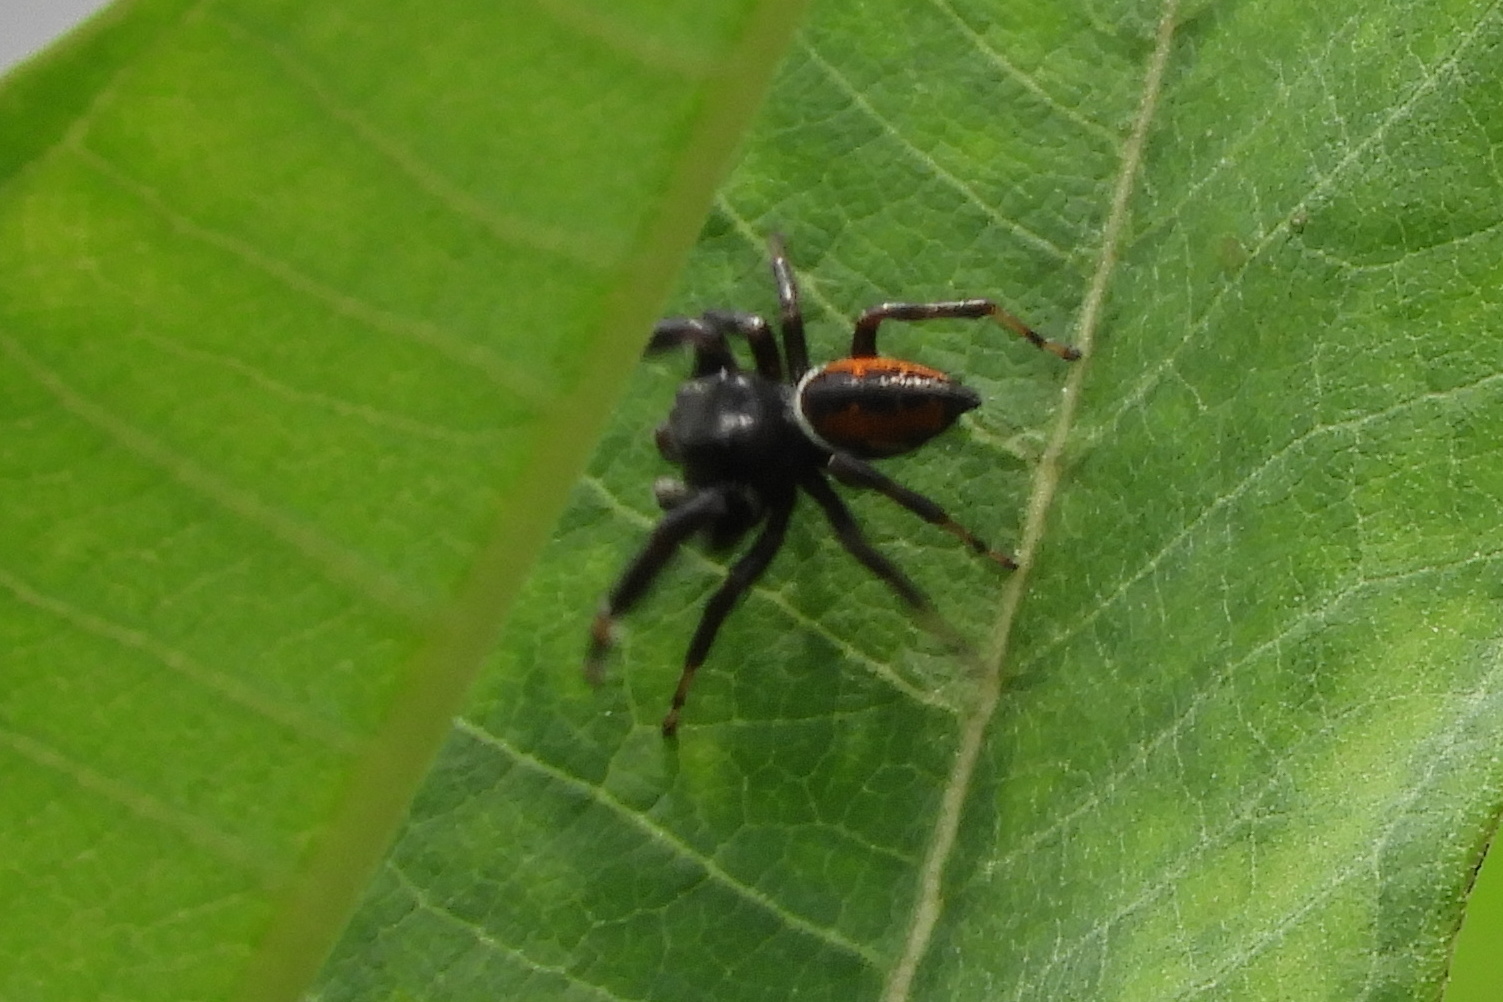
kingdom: Animalia
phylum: Arthropoda
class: Arachnida
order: Araneae
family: Salticidae
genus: Phidippus
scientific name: Phidippus clarus
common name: Brilliant jumping spider
